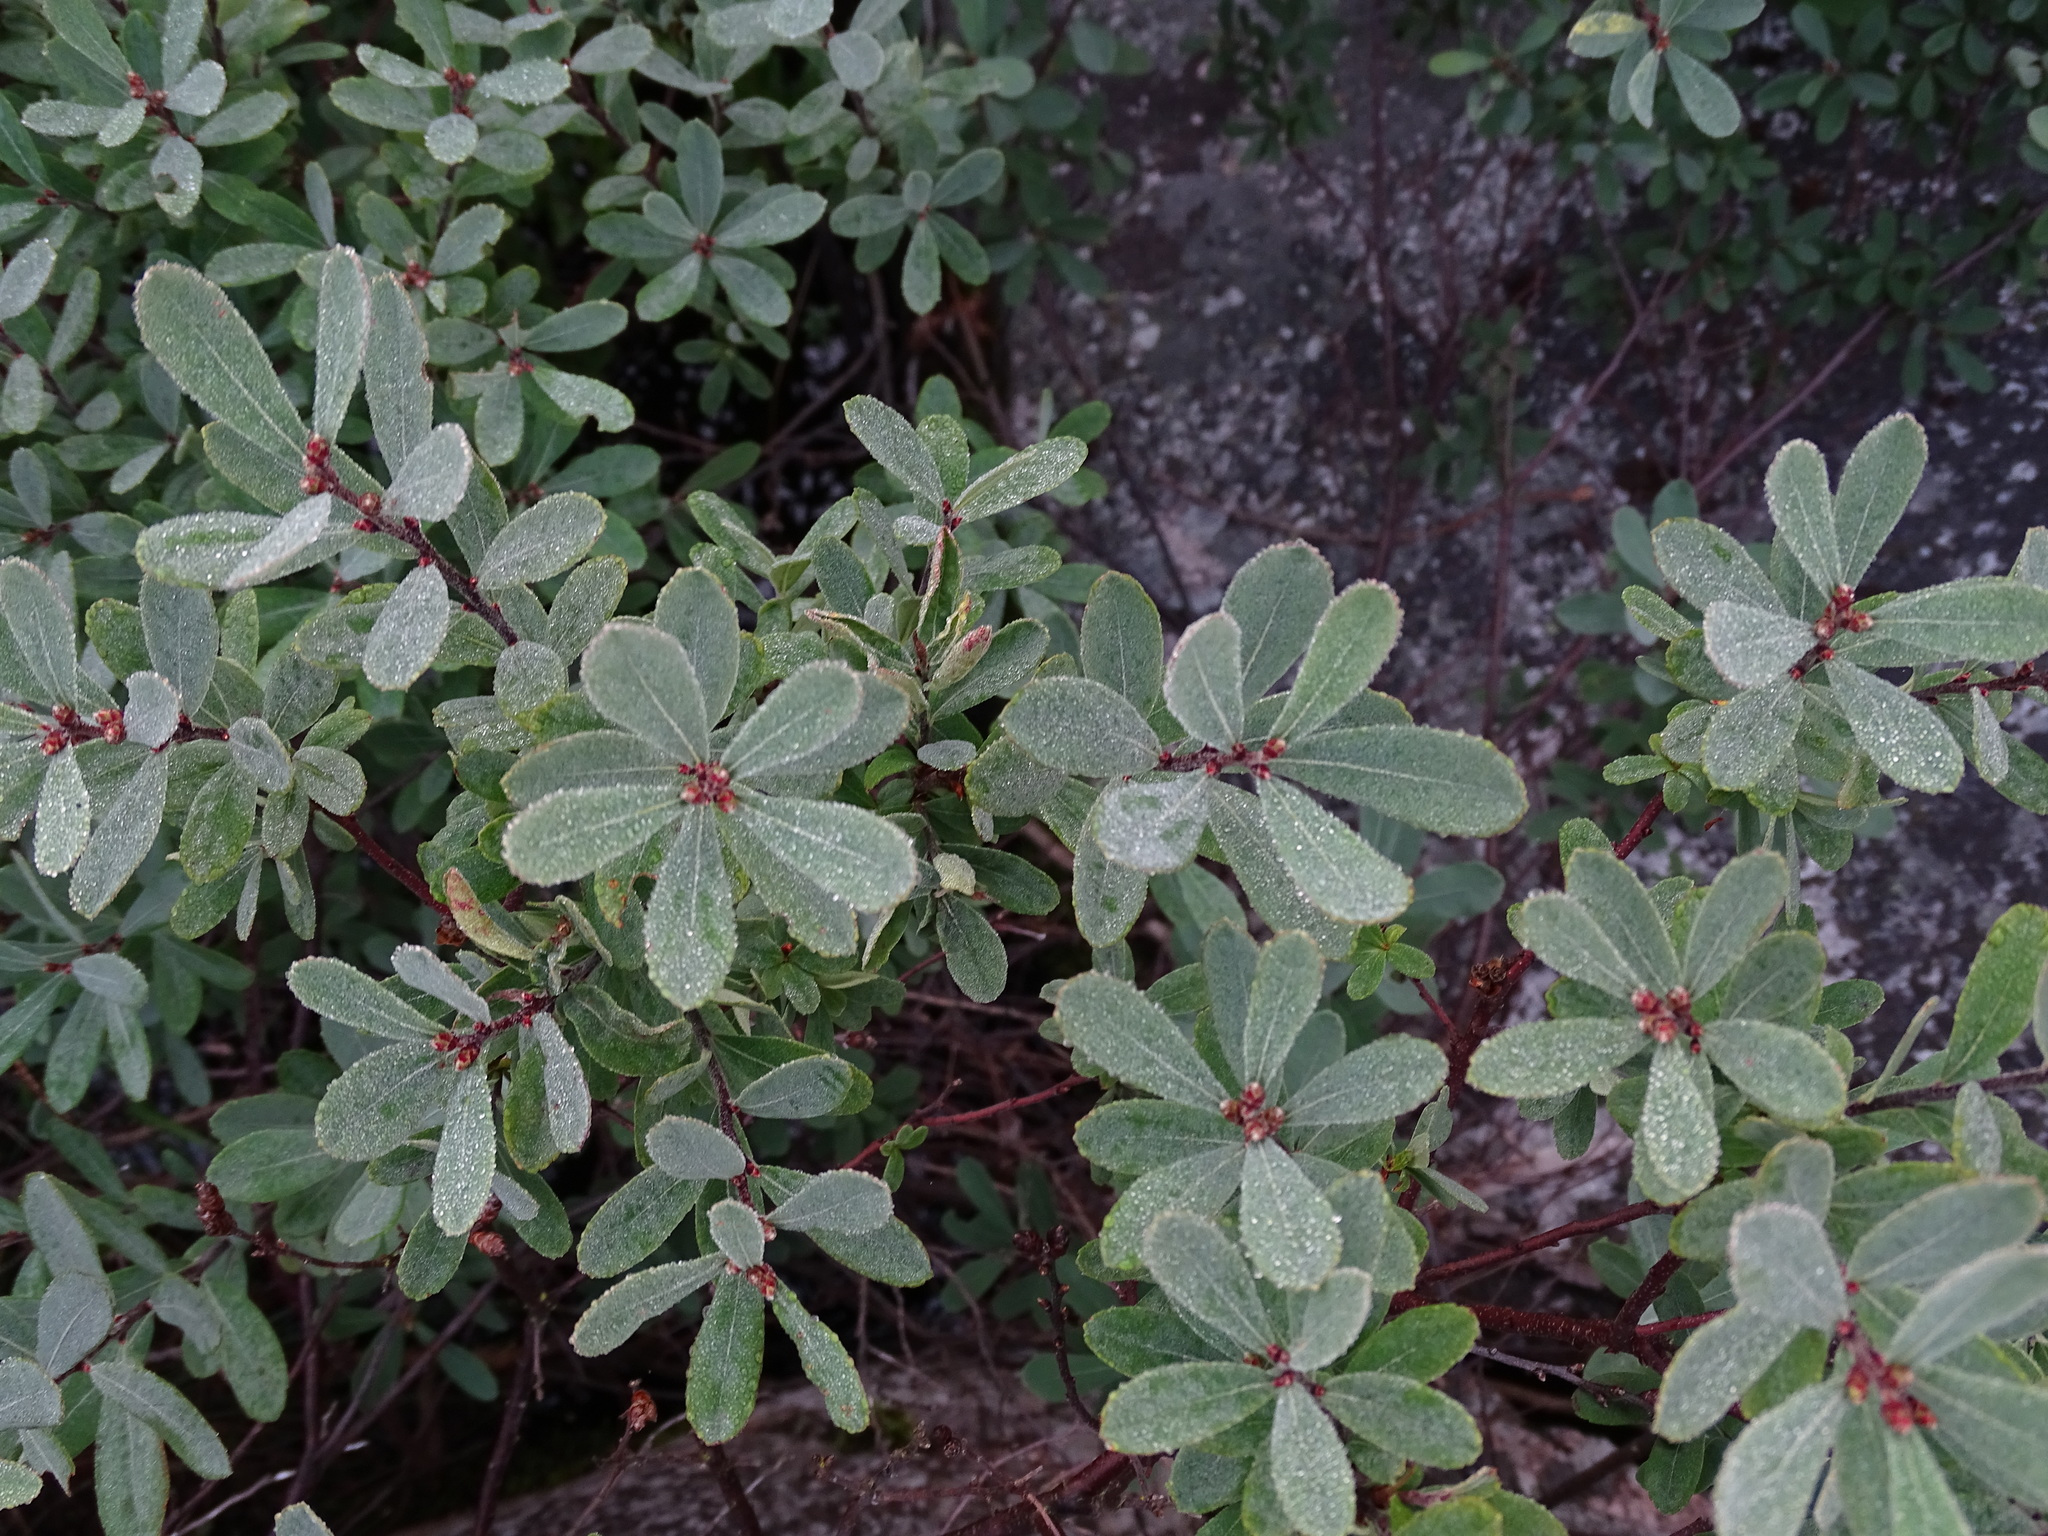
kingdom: Plantae
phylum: Tracheophyta
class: Magnoliopsida
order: Fagales
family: Myricaceae
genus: Myrica
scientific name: Myrica gale
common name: Sweet gale
